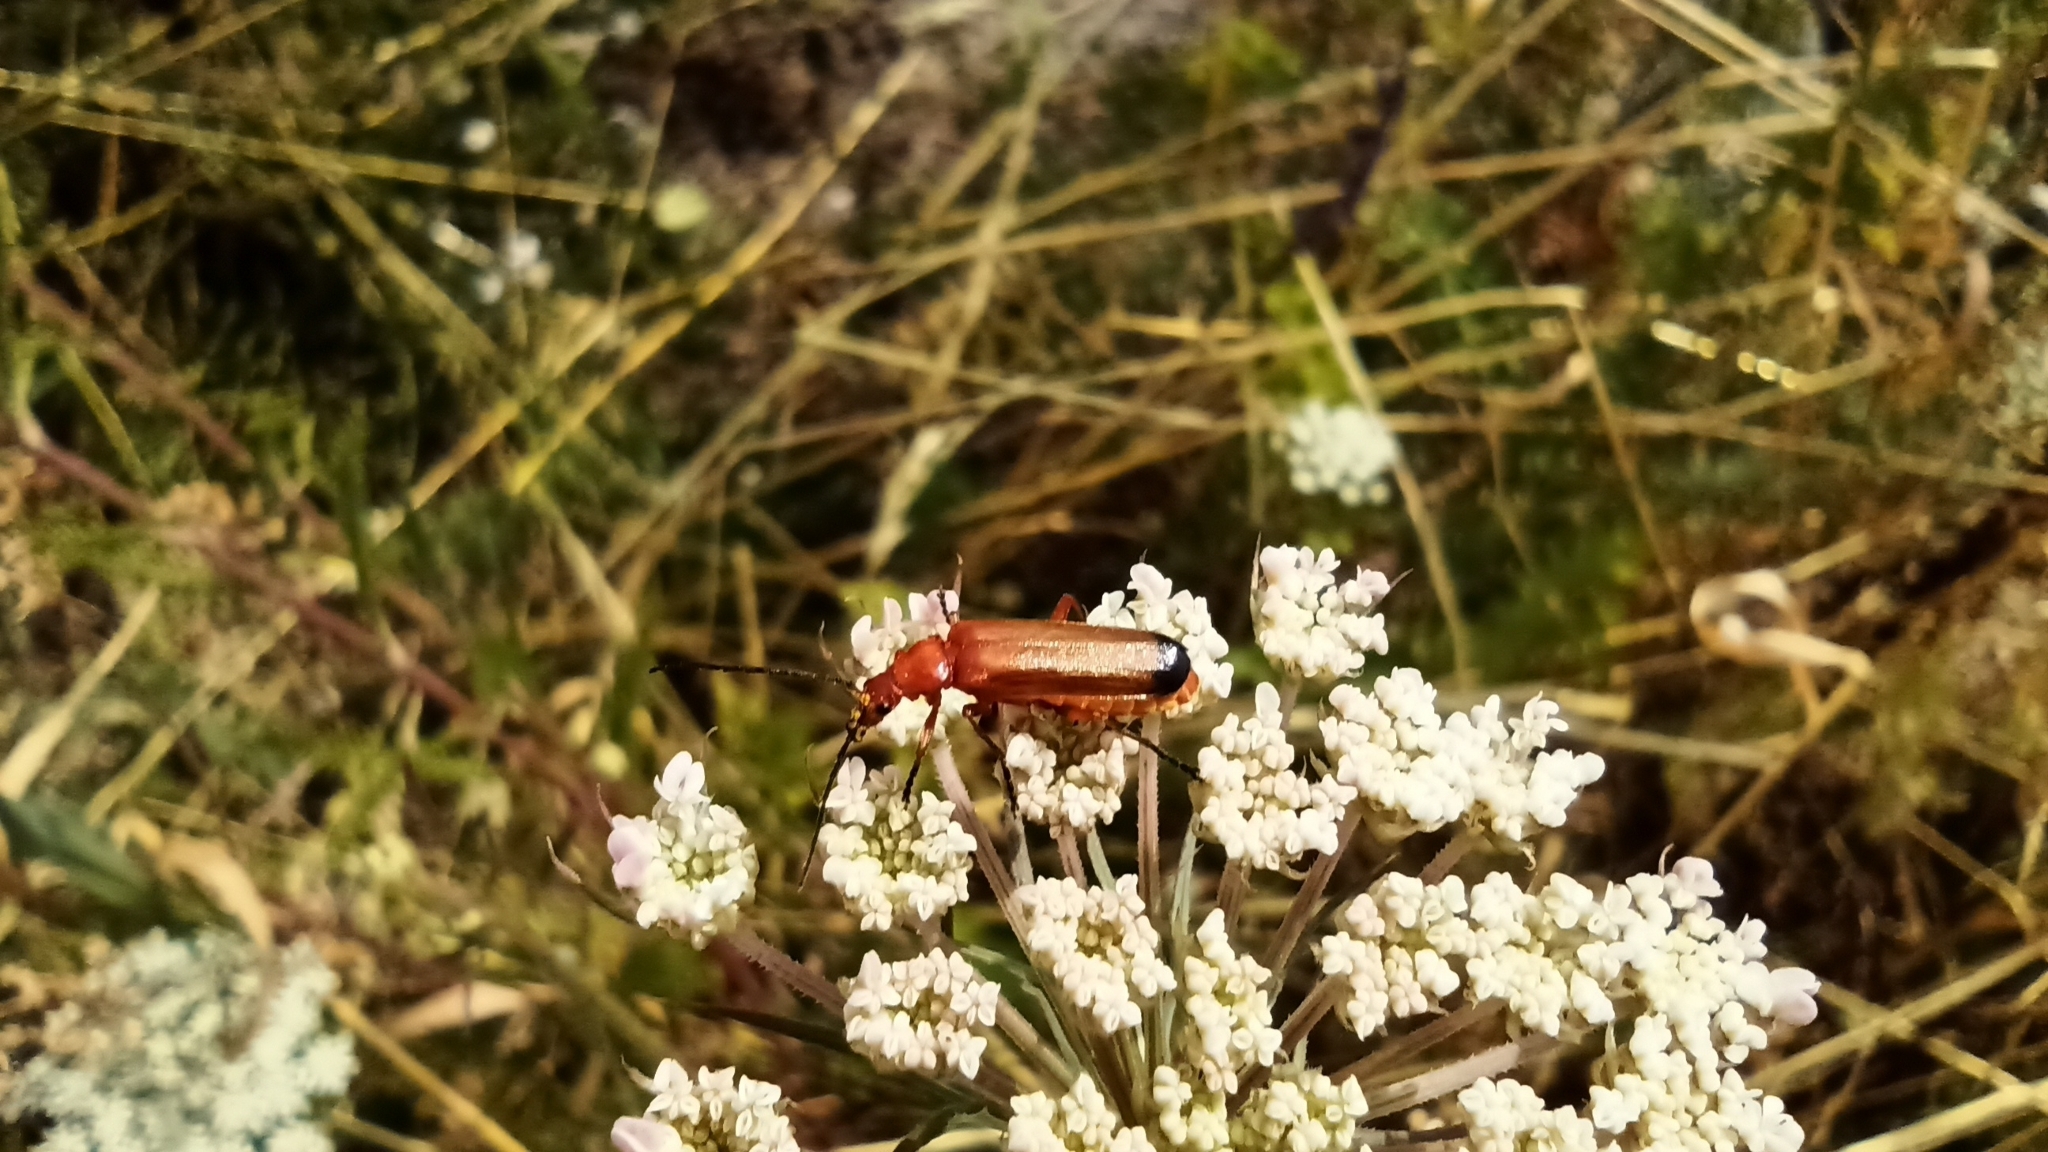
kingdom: Animalia
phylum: Arthropoda
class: Insecta
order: Coleoptera
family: Cantharidae
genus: Rhagonycha
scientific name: Rhagonycha fulva
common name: Common red soldier beetle
